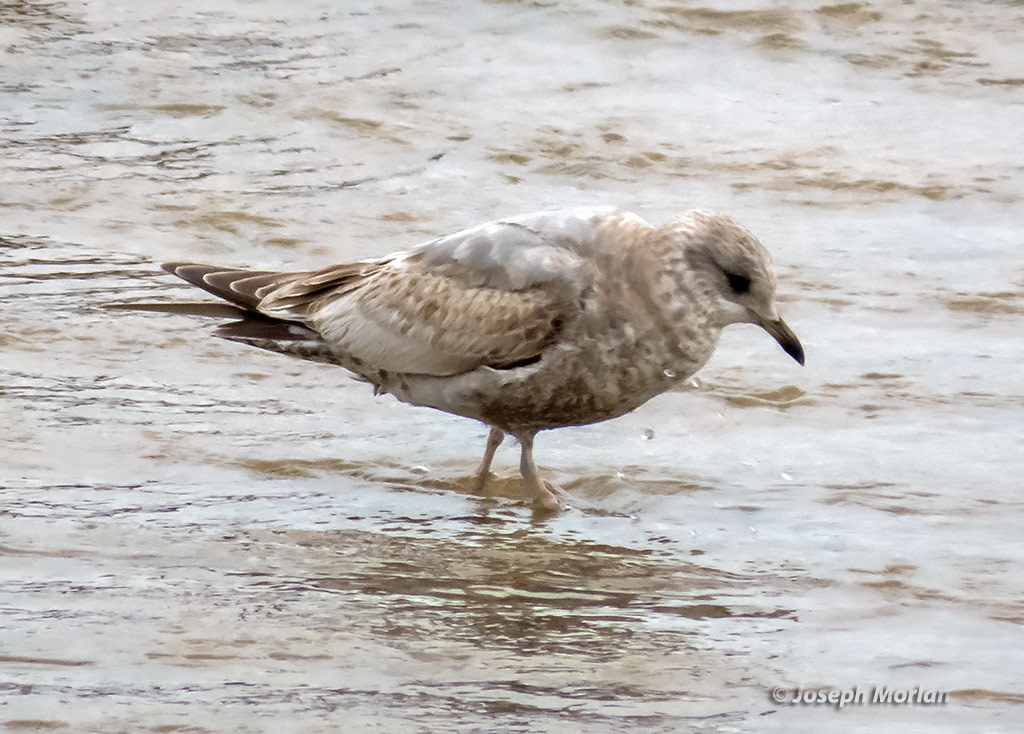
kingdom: Animalia
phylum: Chordata
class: Aves
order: Charadriiformes
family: Laridae
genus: Larus
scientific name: Larus brachyrhynchus
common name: Short-billed gull
